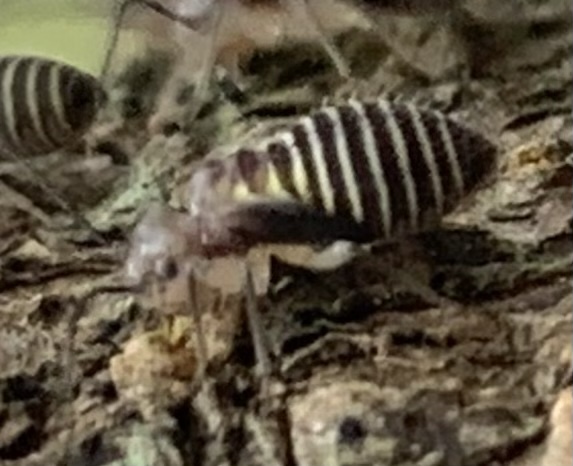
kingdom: Animalia
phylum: Arthropoda
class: Insecta
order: Psocodea
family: Psocidae
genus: Cerastipsocus
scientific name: Cerastipsocus venosus
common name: Tree cattle
